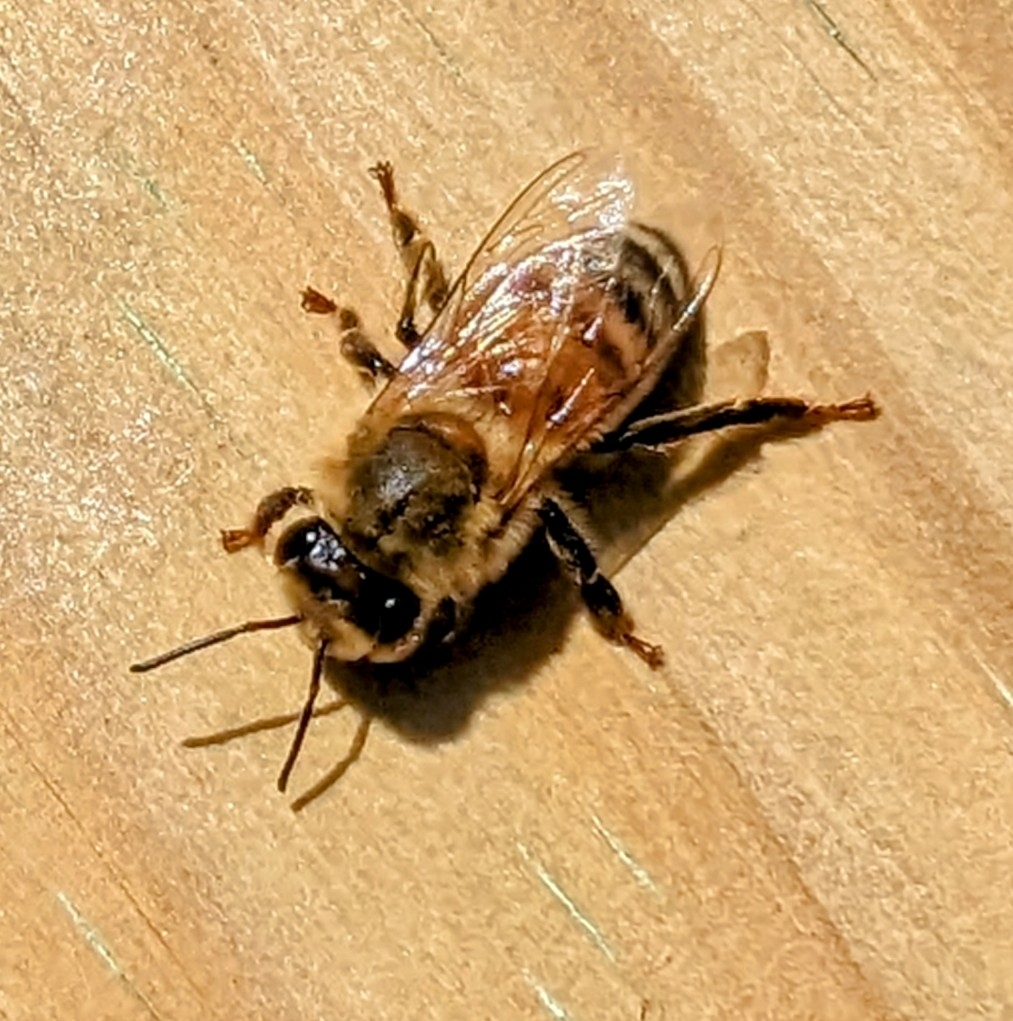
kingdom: Animalia
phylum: Arthropoda
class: Insecta
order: Hymenoptera
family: Apidae
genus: Apis
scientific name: Apis mellifera
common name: Honey bee
